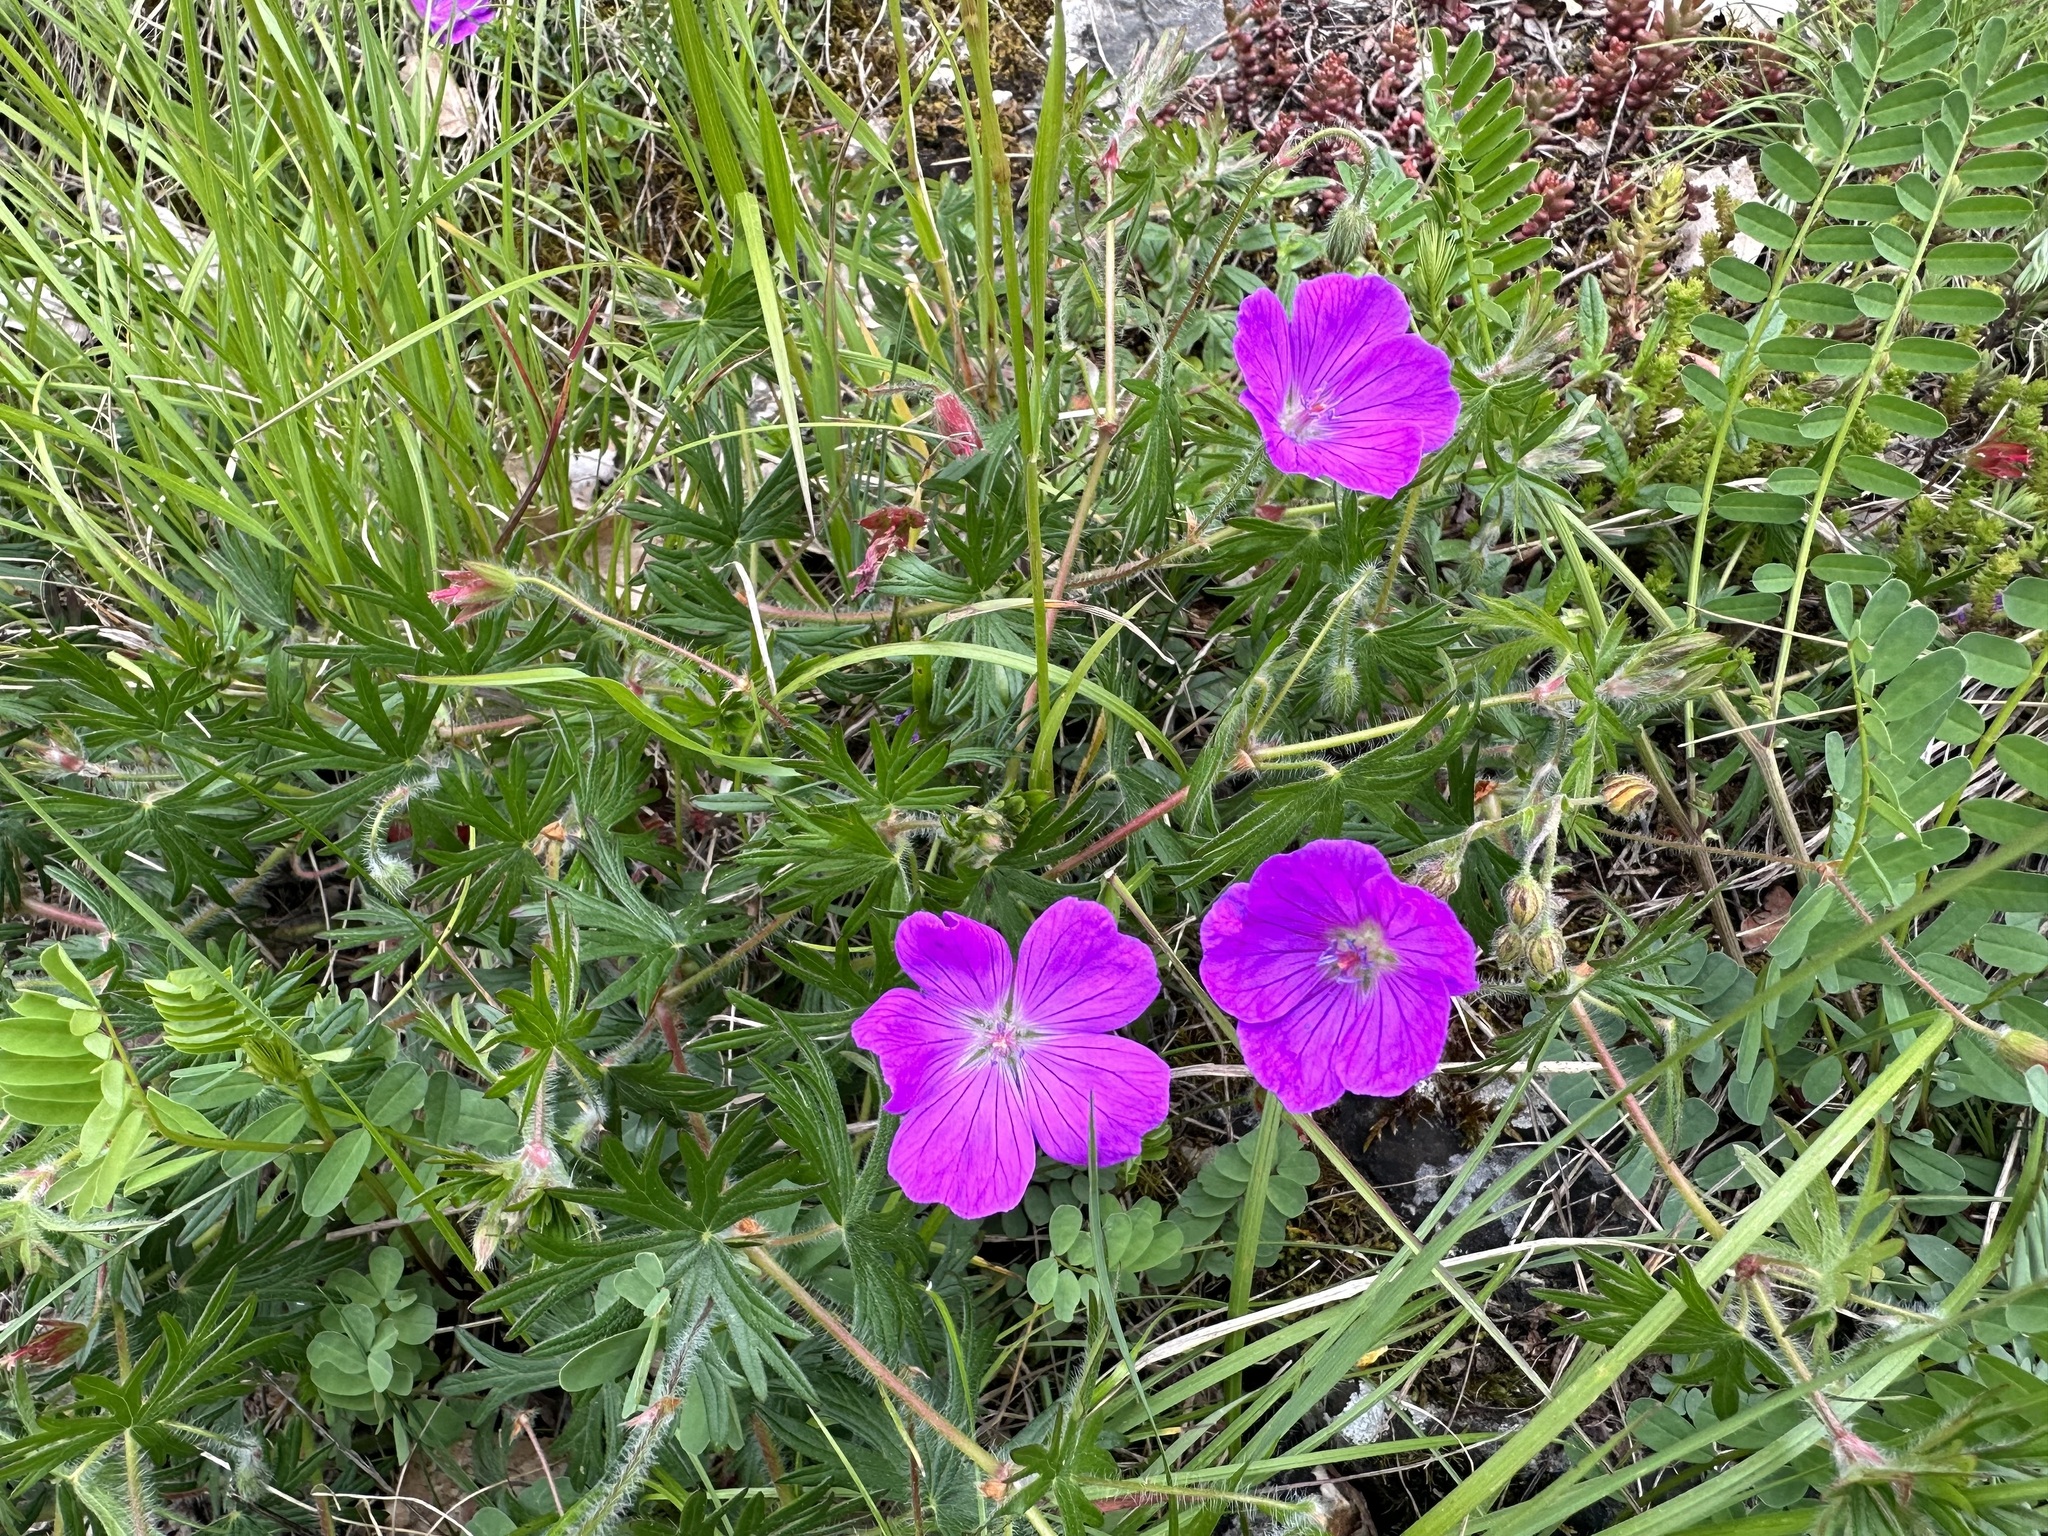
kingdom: Plantae
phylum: Tracheophyta
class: Magnoliopsida
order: Geraniales
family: Geraniaceae
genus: Geranium
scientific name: Geranium sanguineum
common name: Bloody crane's-bill
